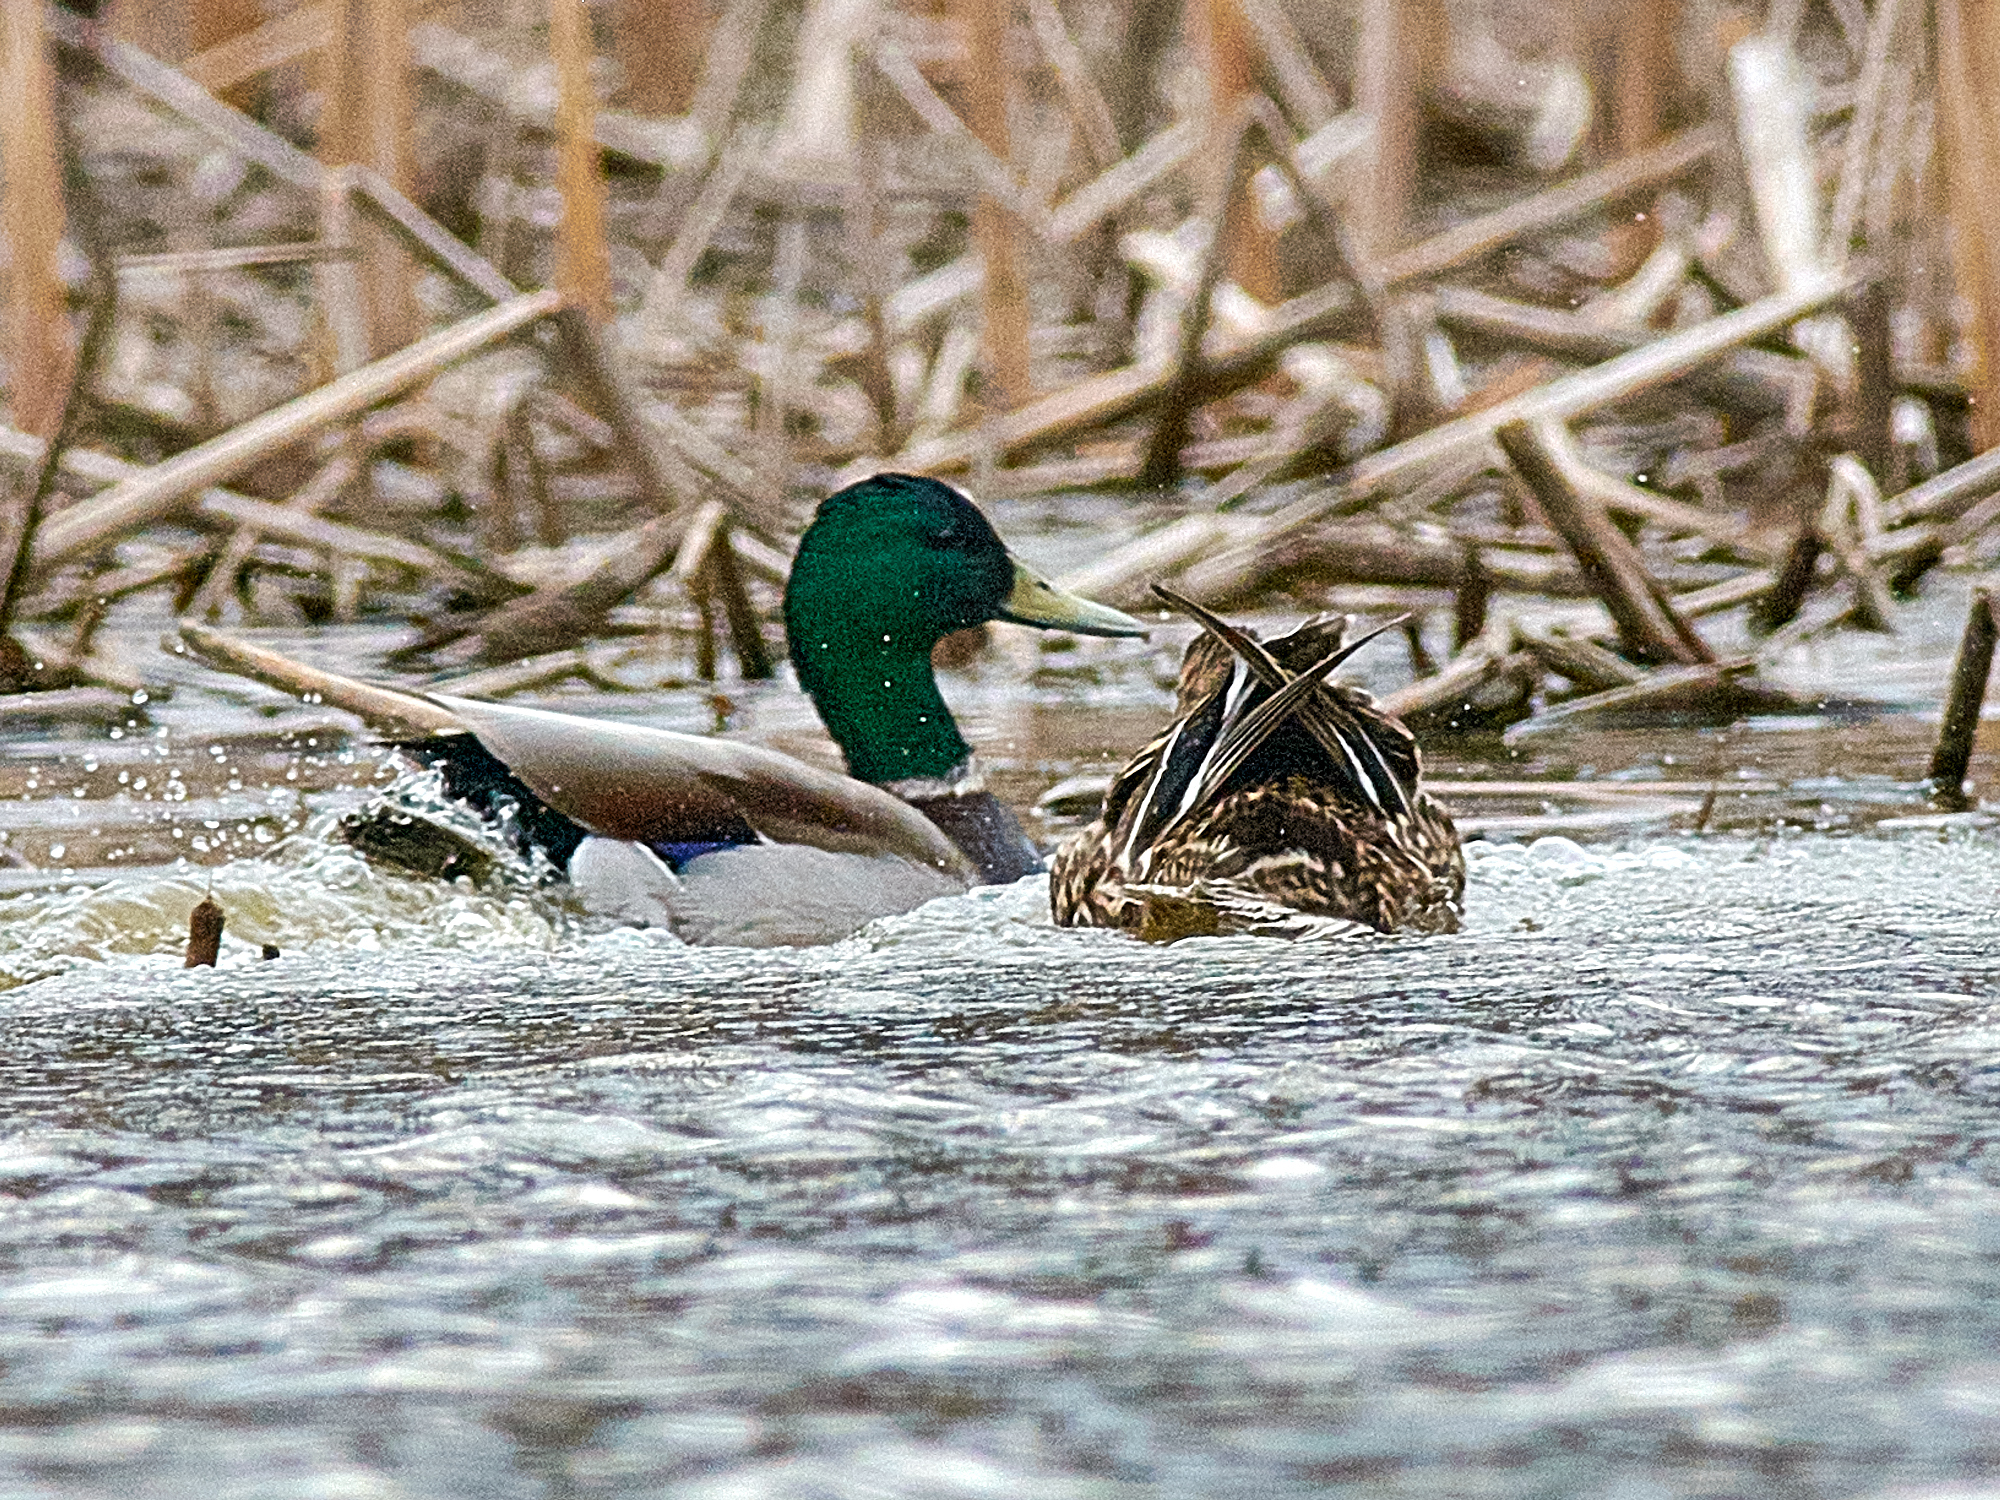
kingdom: Animalia
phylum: Chordata
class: Aves
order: Anseriformes
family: Anatidae
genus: Anas
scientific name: Anas platyrhynchos
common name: Mallard
